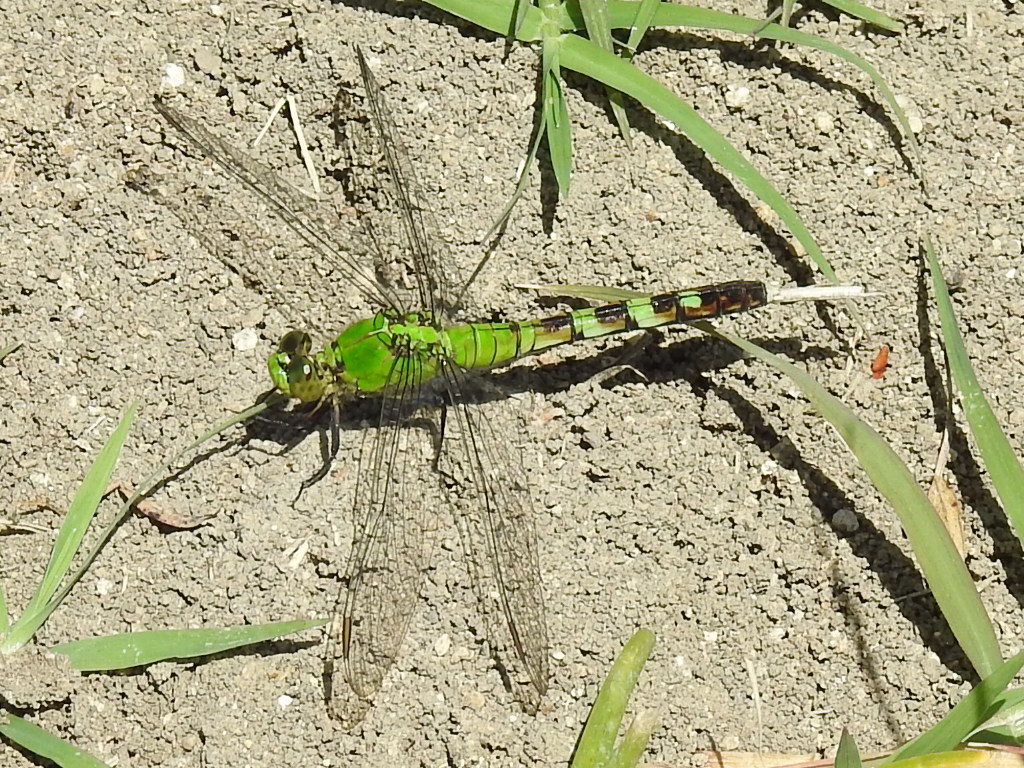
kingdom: Animalia
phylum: Arthropoda
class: Insecta
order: Odonata
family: Libellulidae
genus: Erythemis
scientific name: Erythemis simplicicollis
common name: Eastern pondhawk
